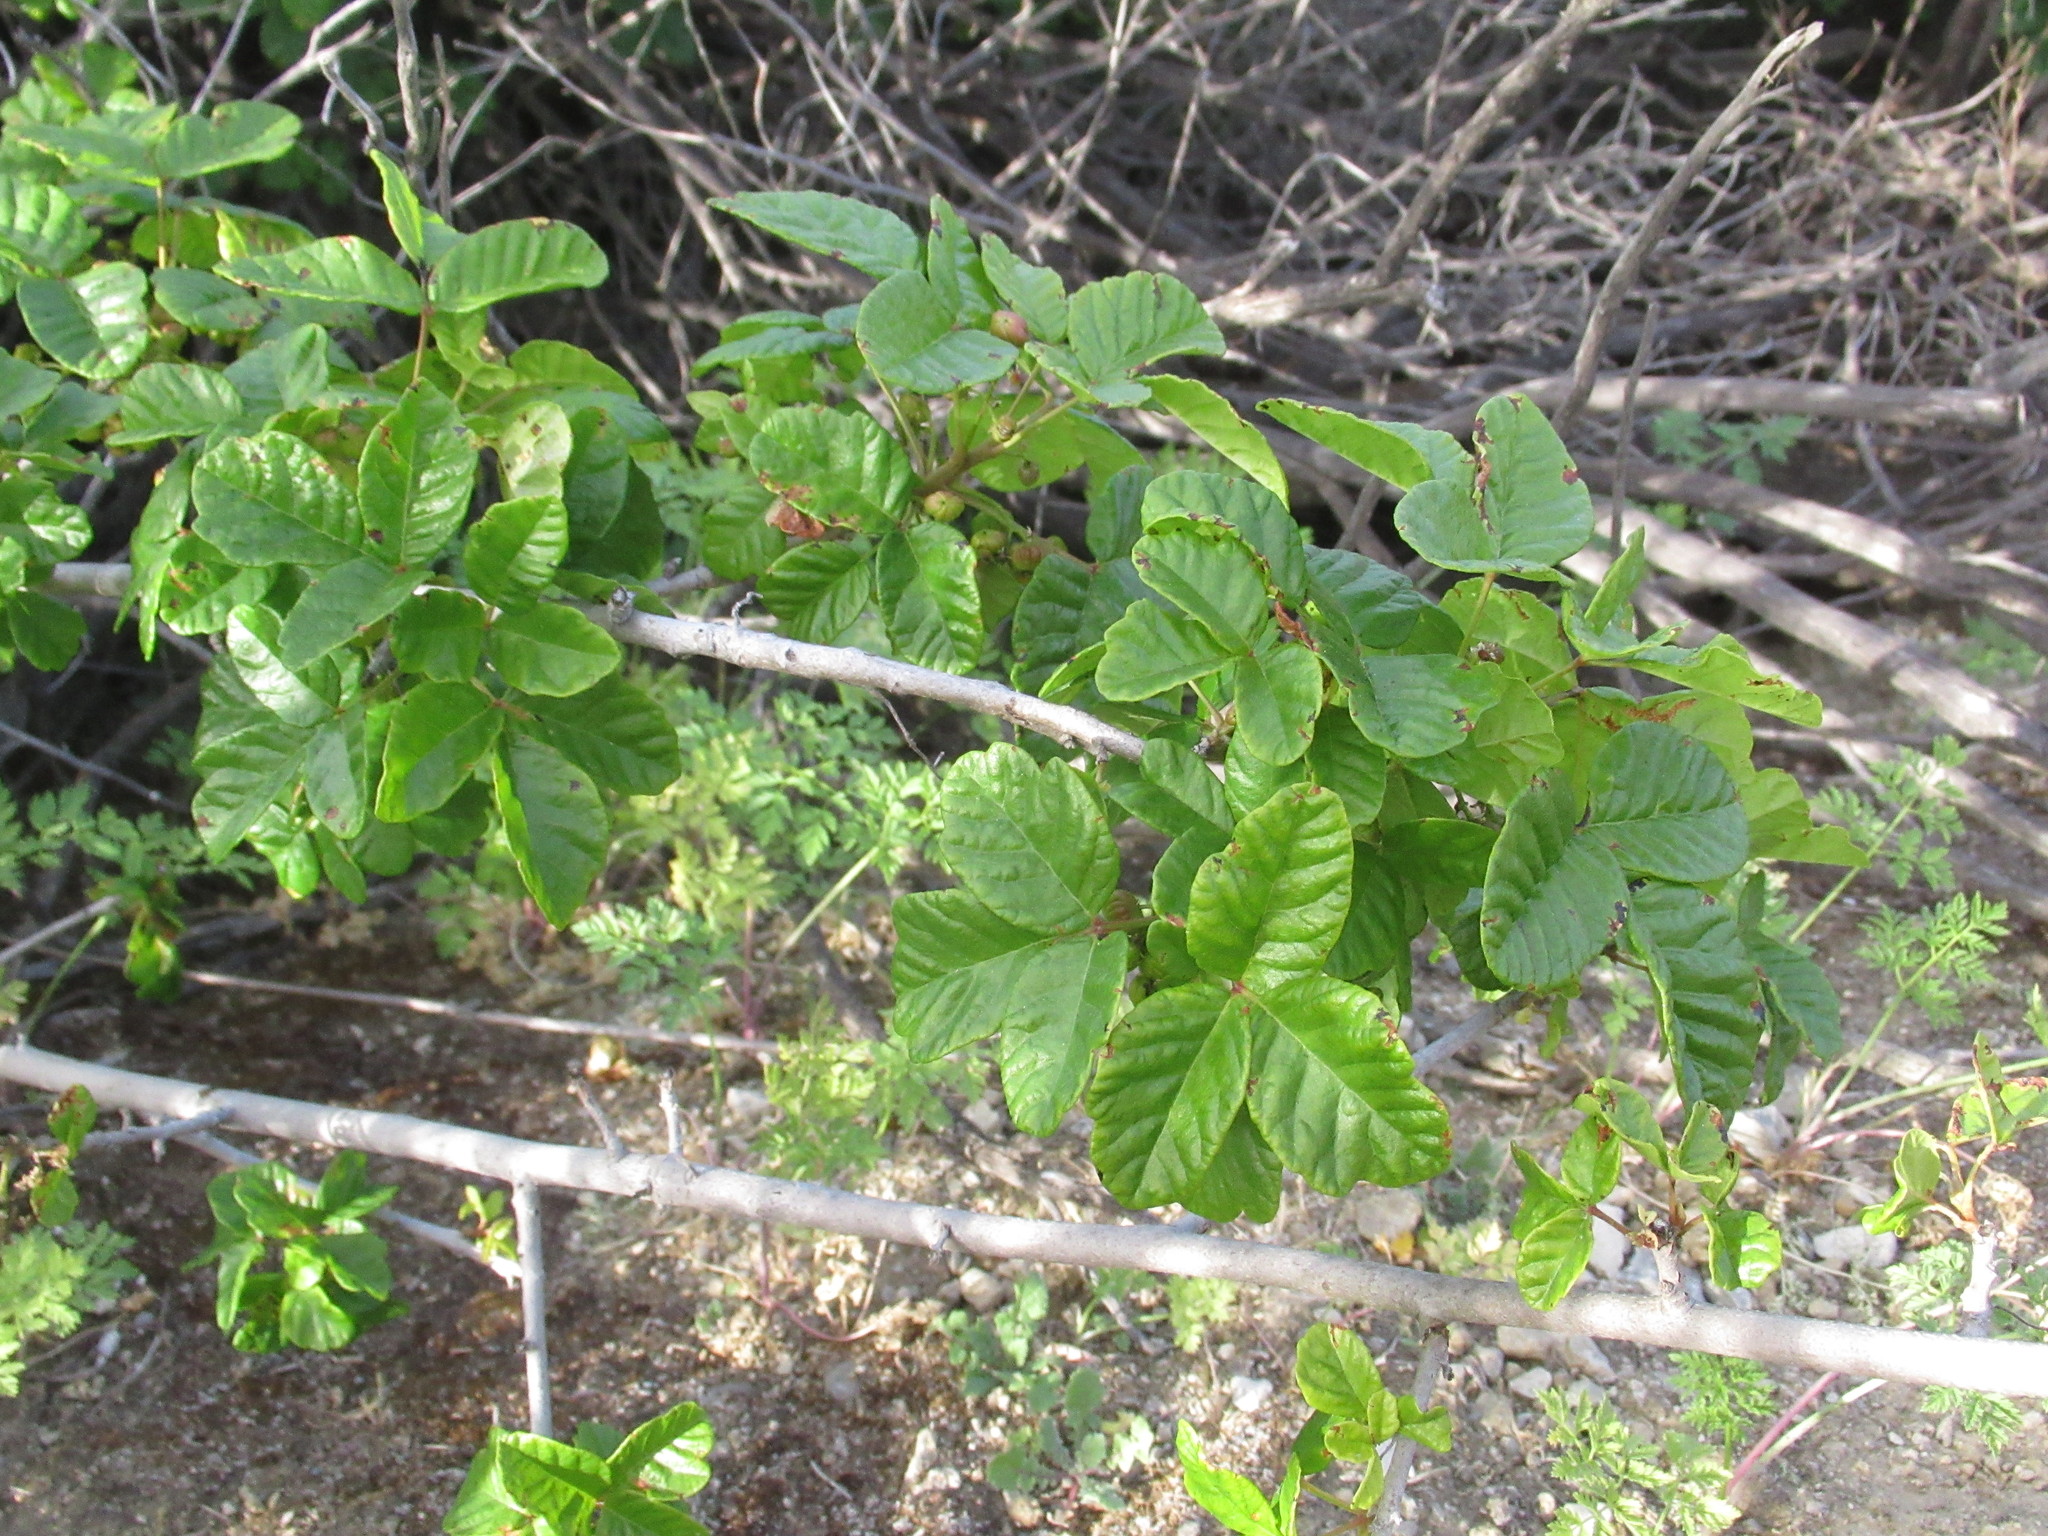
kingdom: Plantae
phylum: Tracheophyta
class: Magnoliopsida
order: Sapindales
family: Anacardiaceae
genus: Toxicodendron
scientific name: Toxicodendron diversilobum
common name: Pacific poison-oak
